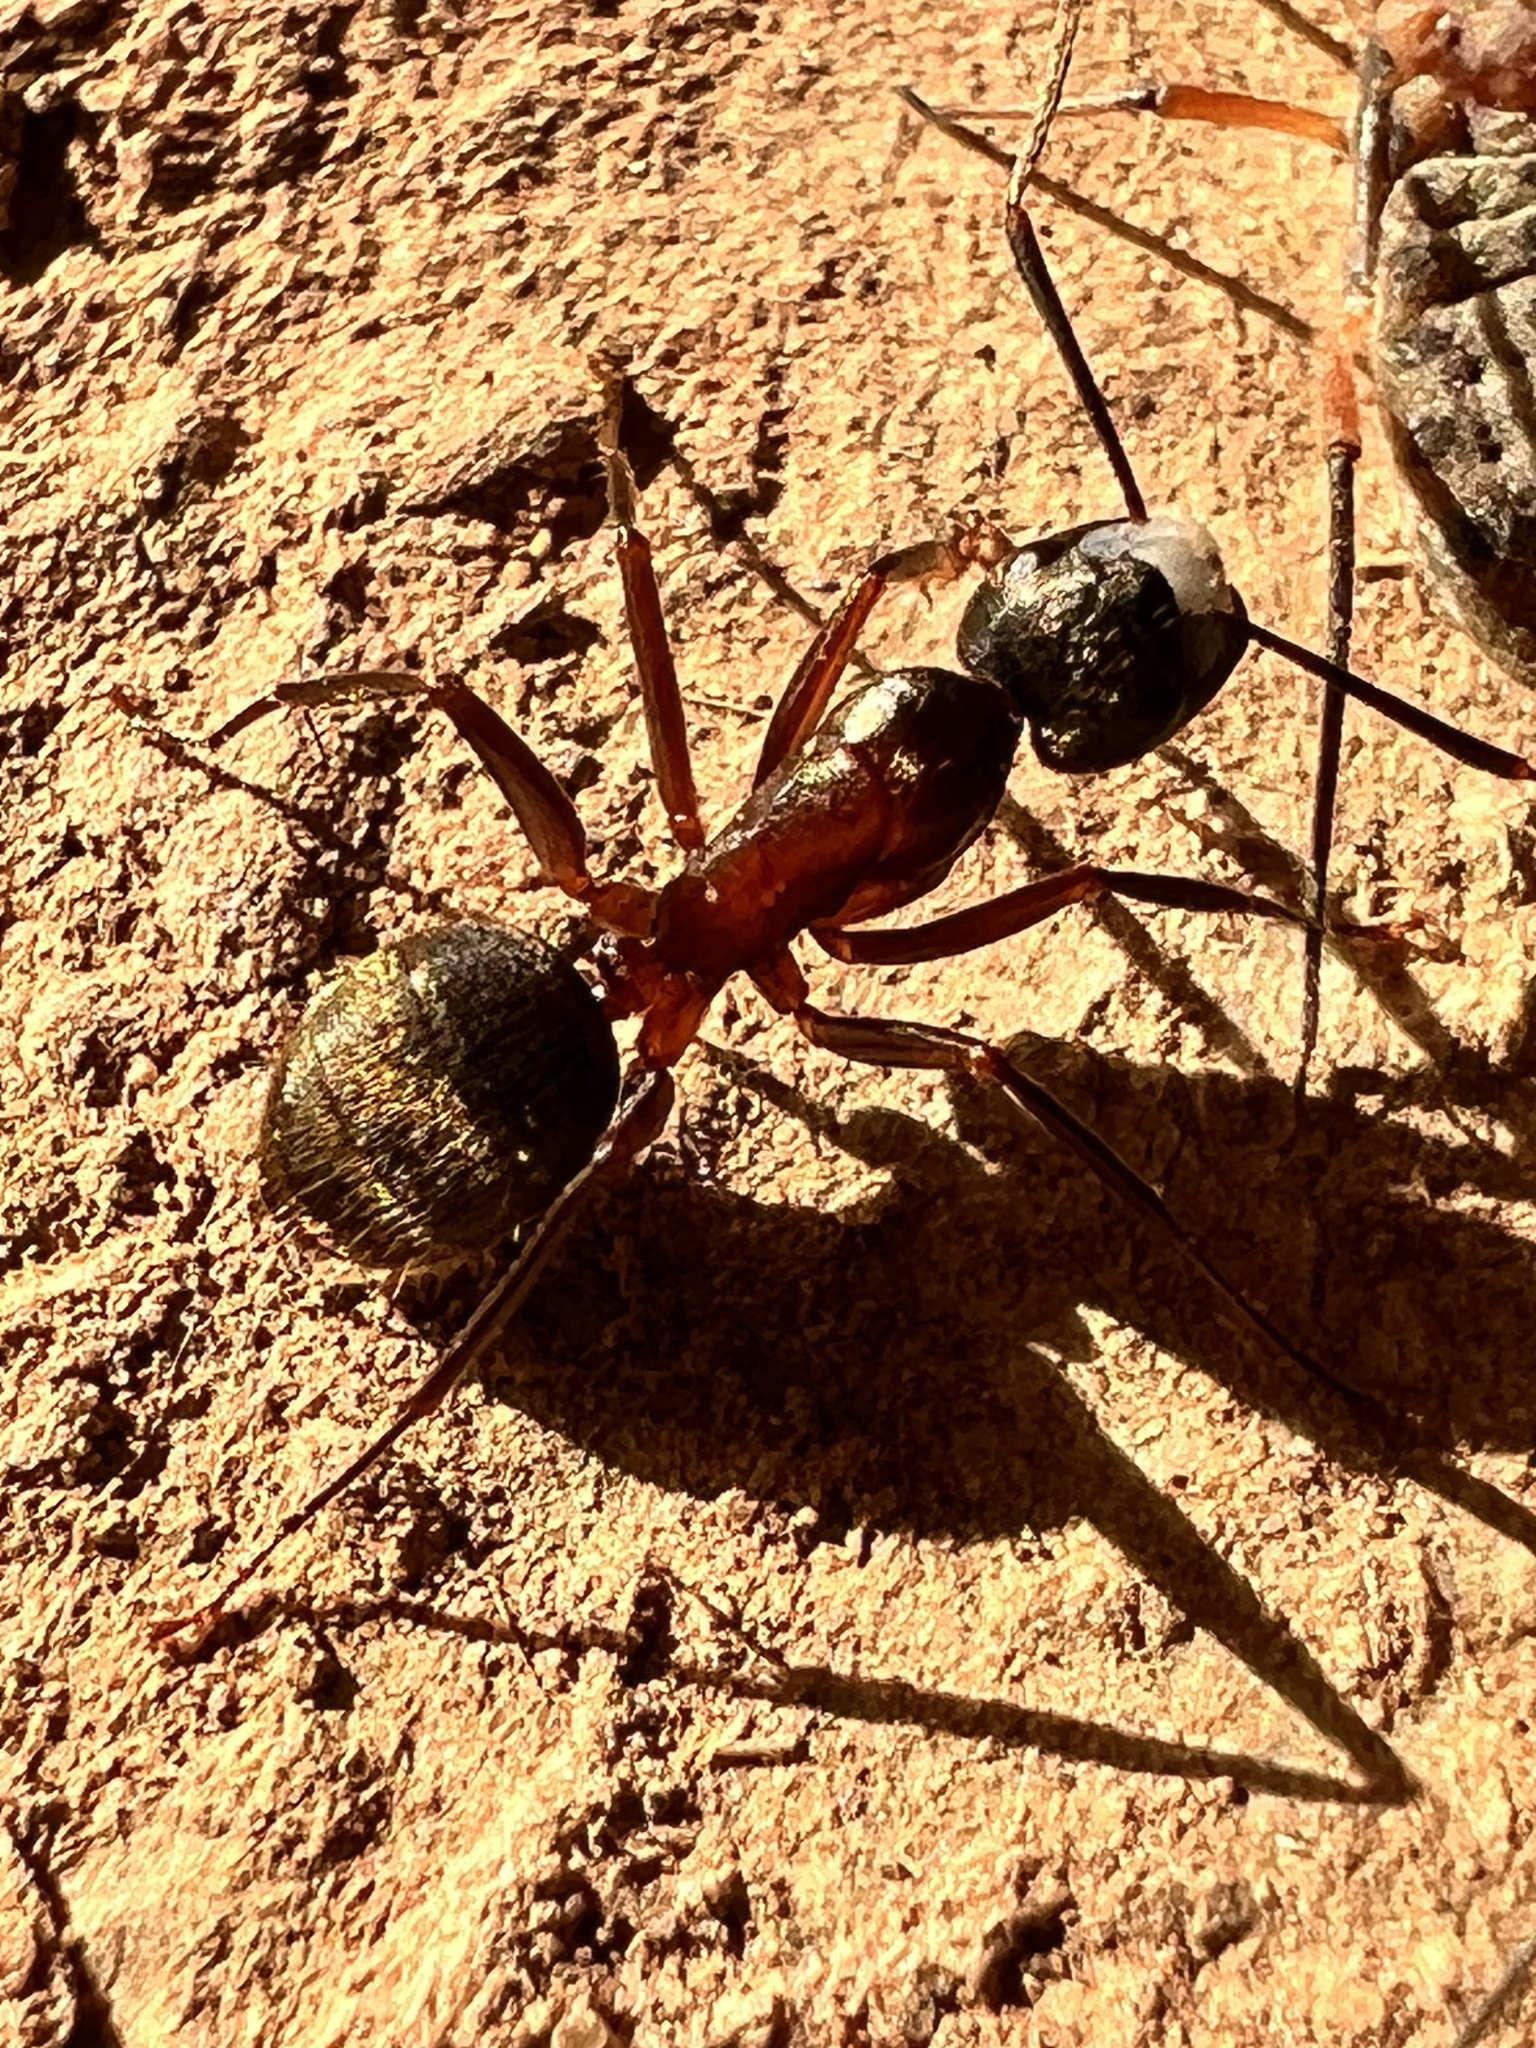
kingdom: Animalia
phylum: Arthropoda
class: Insecta
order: Hymenoptera
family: Formicidae
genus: Camponotus
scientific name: Camponotus chromaiodes
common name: Red carpenter ant
